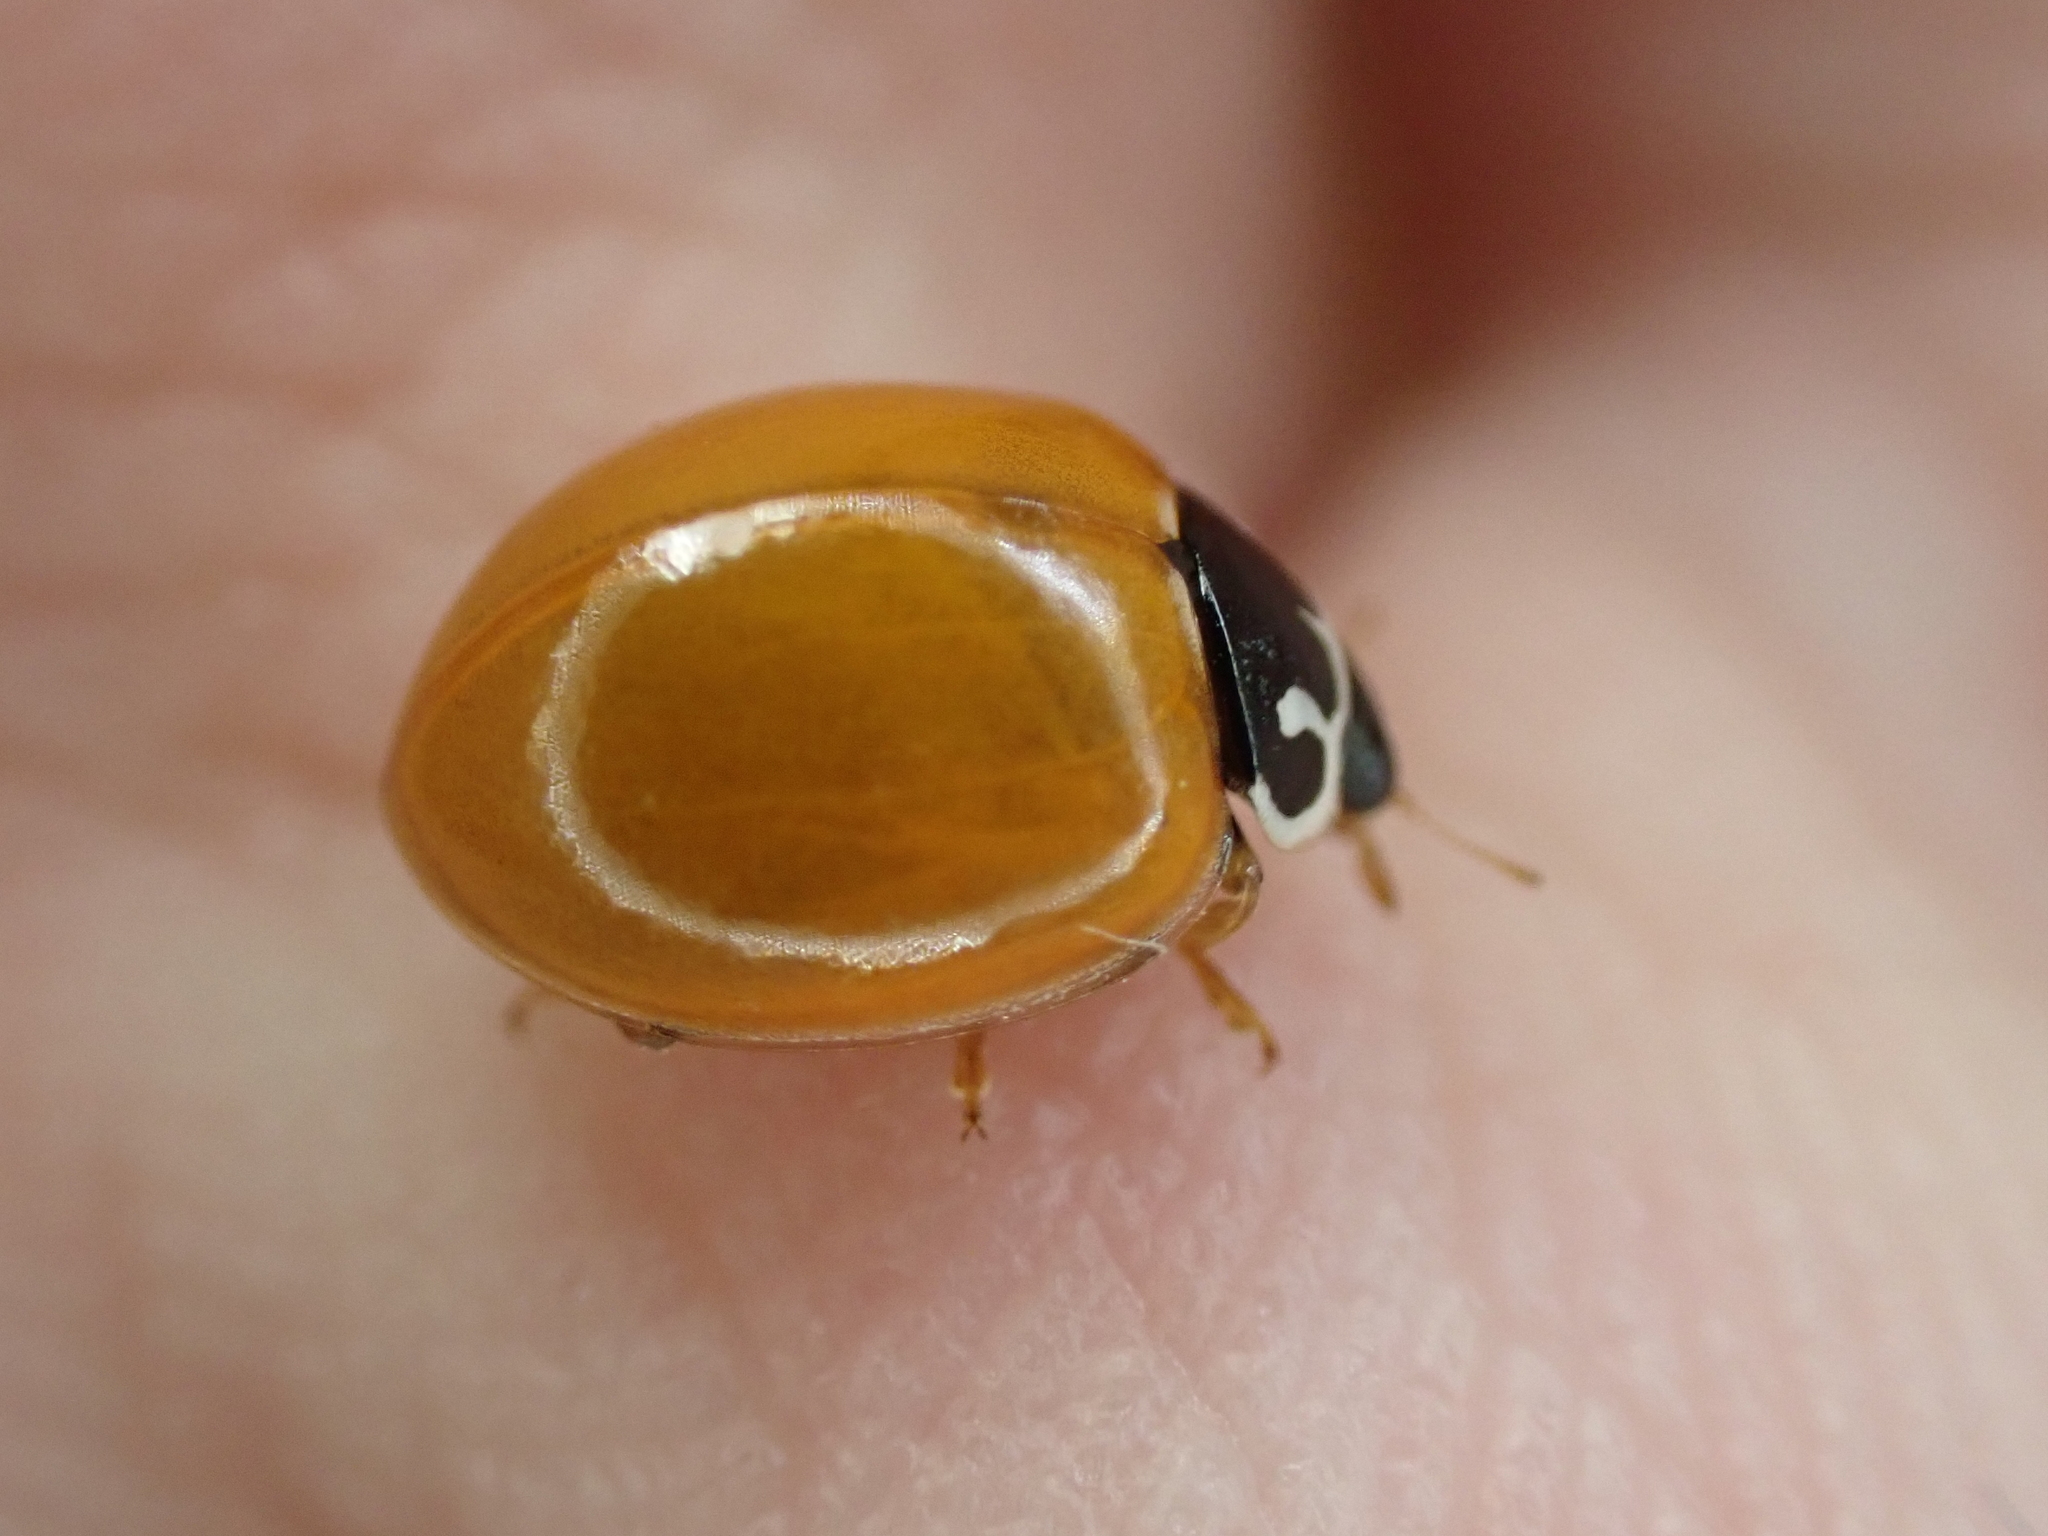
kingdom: Animalia
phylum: Arthropoda
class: Insecta
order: Coleoptera
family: Coccinellidae
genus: Cycloneda
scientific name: Cycloneda munda
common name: Polished lady beetle
